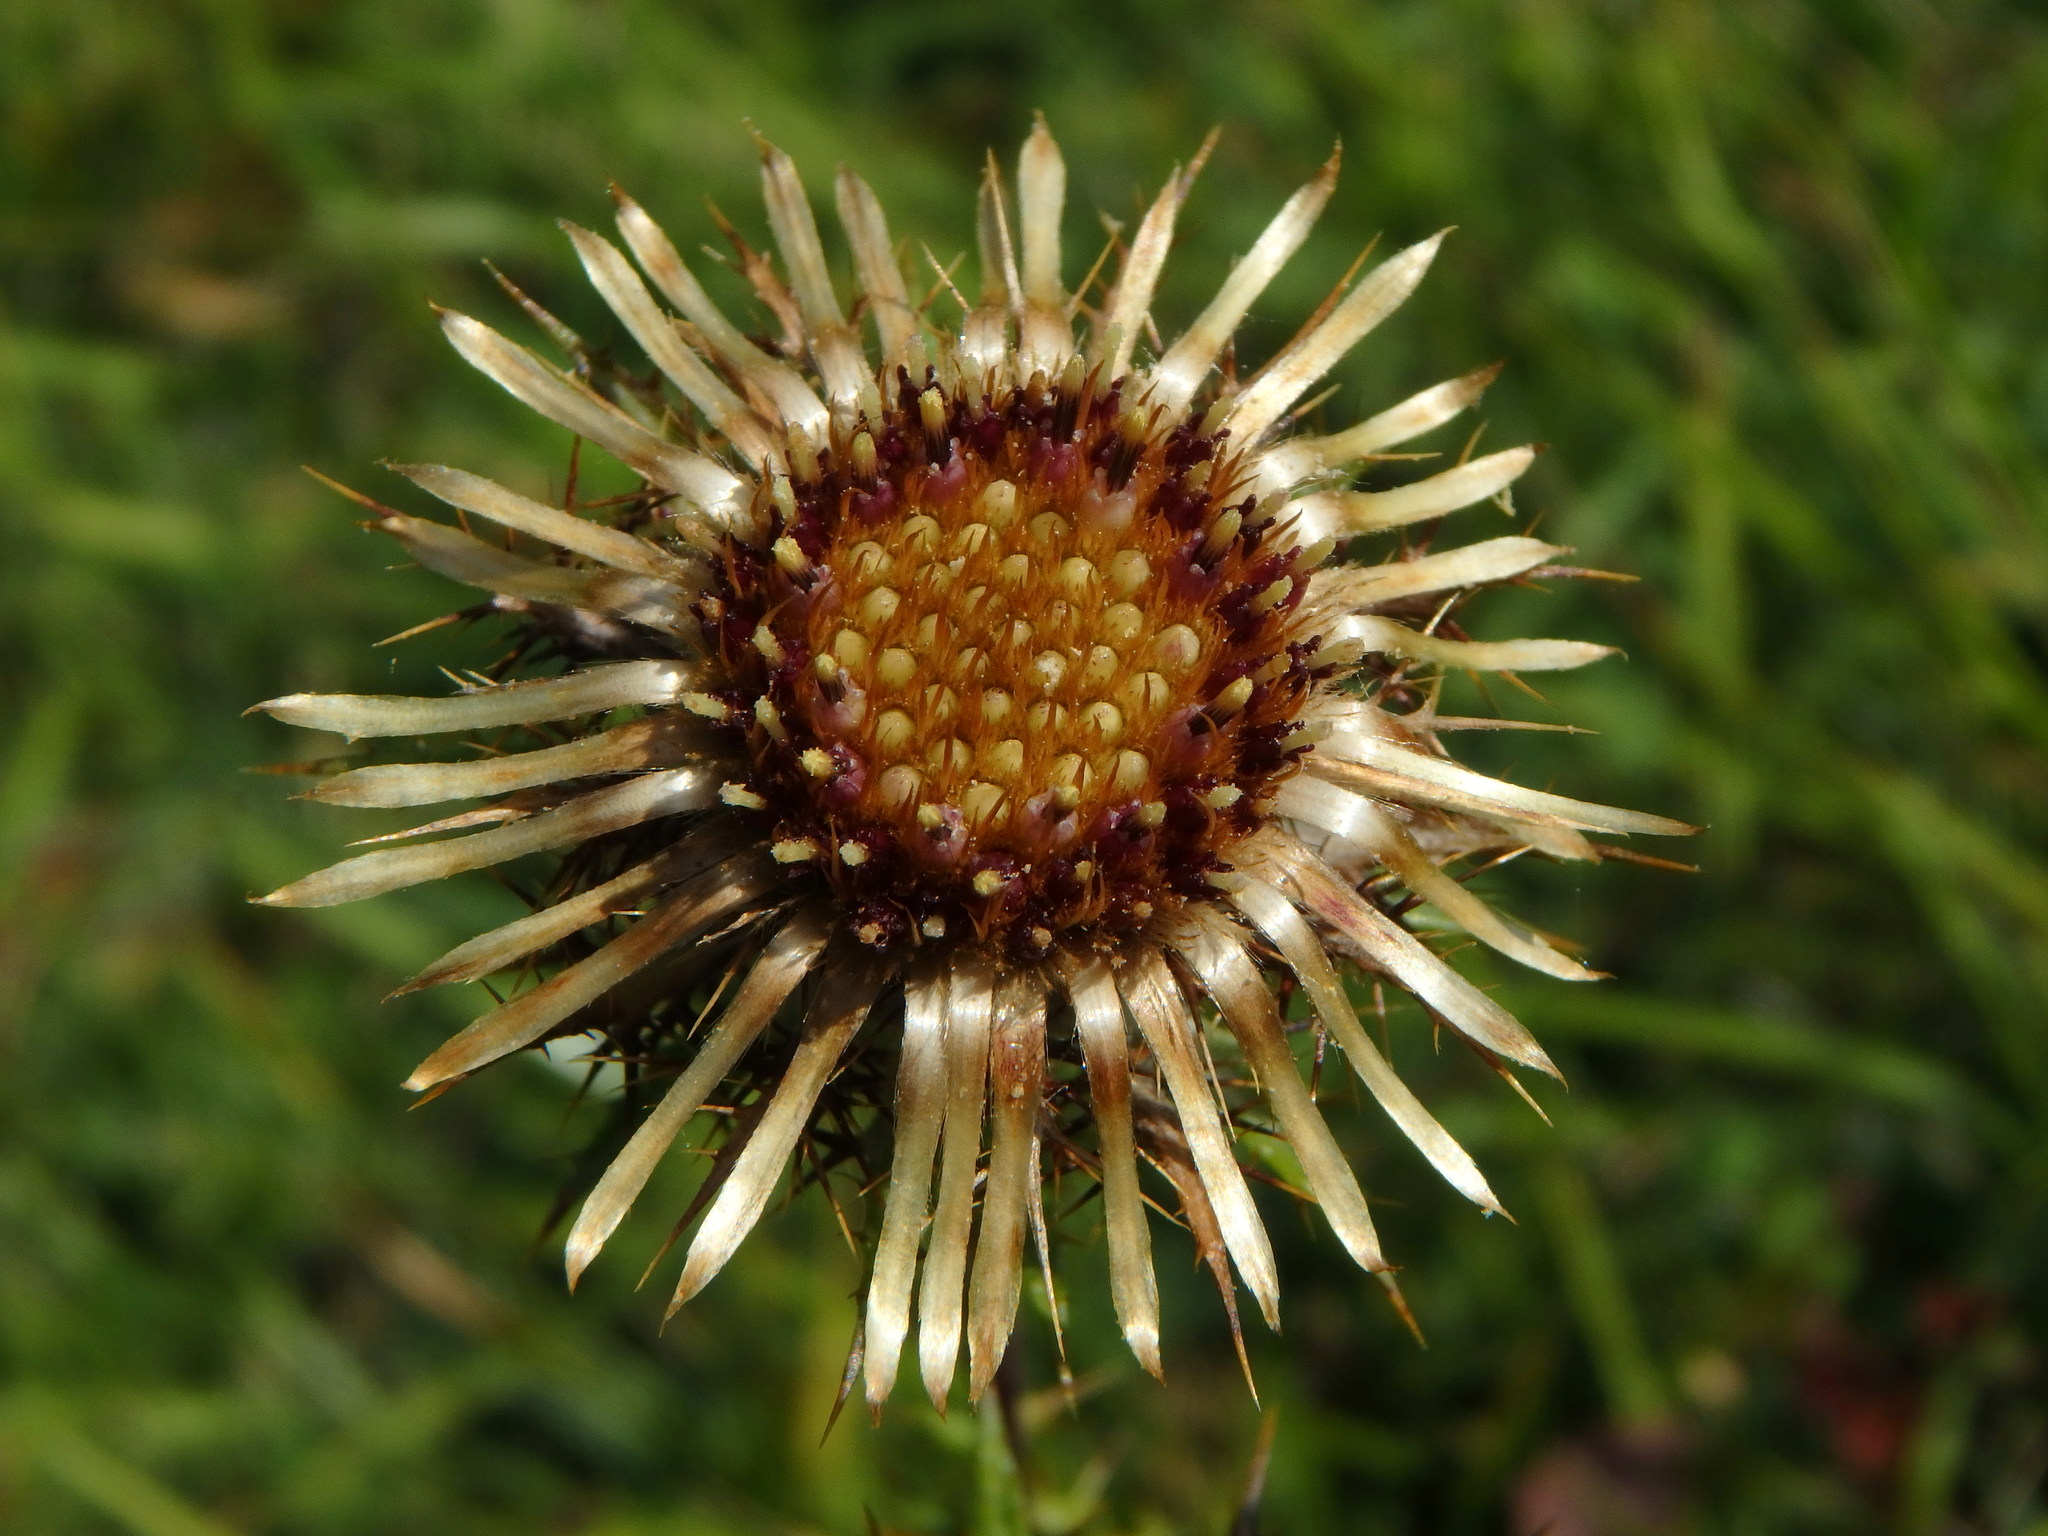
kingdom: Plantae
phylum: Tracheophyta
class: Magnoliopsida
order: Asterales
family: Asteraceae
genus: Carlina
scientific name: Carlina vulgaris
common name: Carline thistle
